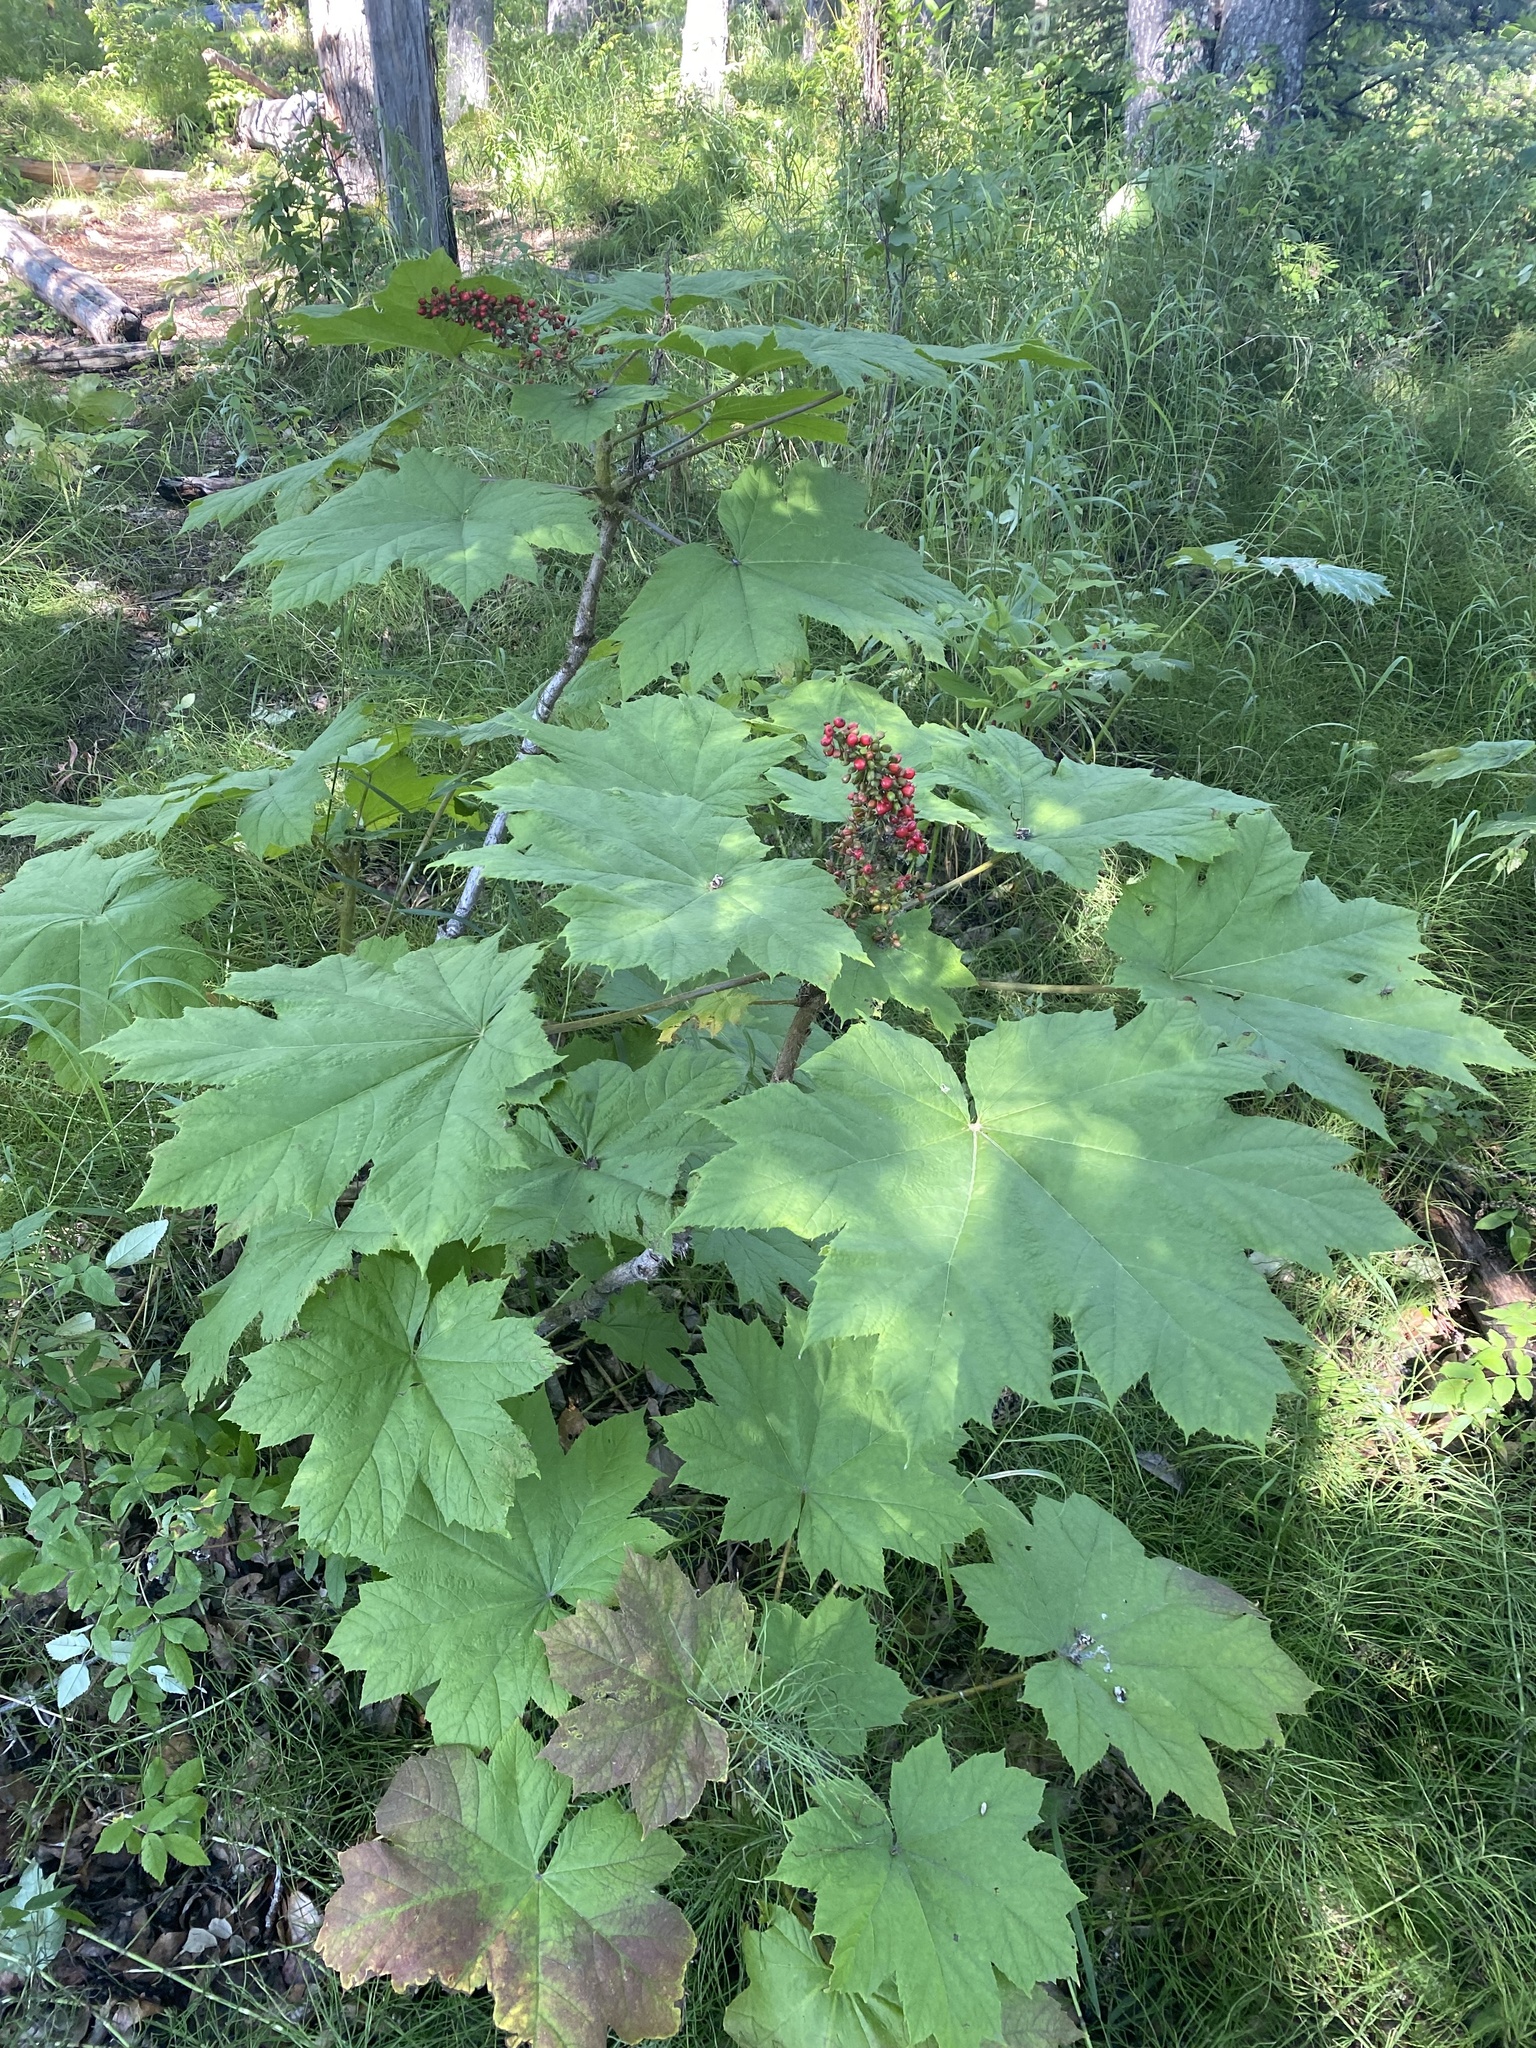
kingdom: Plantae
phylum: Tracheophyta
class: Magnoliopsida
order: Apiales
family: Araliaceae
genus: Oplopanax
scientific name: Oplopanax horridus
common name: Devil's walking-stick
